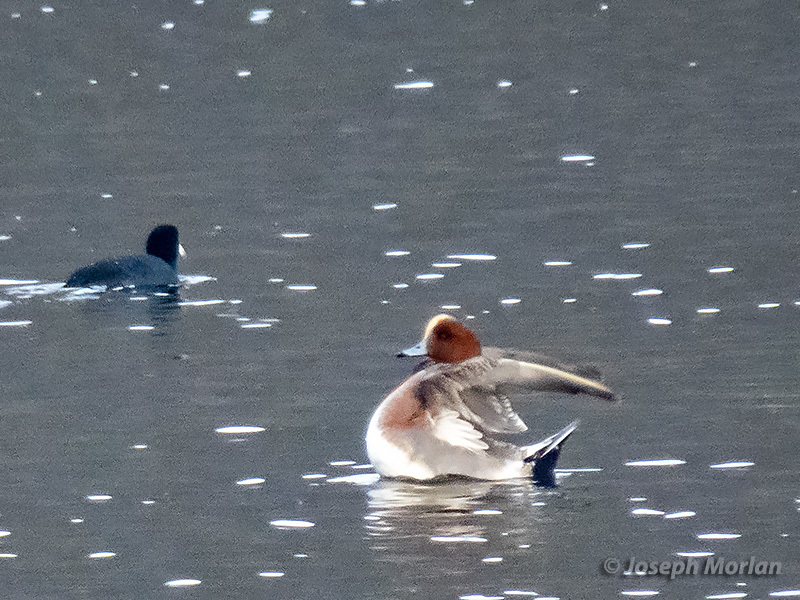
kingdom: Animalia
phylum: Chordata
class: Aves
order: Anseriformes
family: Anatidae
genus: Mareca
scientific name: Mareca penelope
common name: Eurasian wigeon
